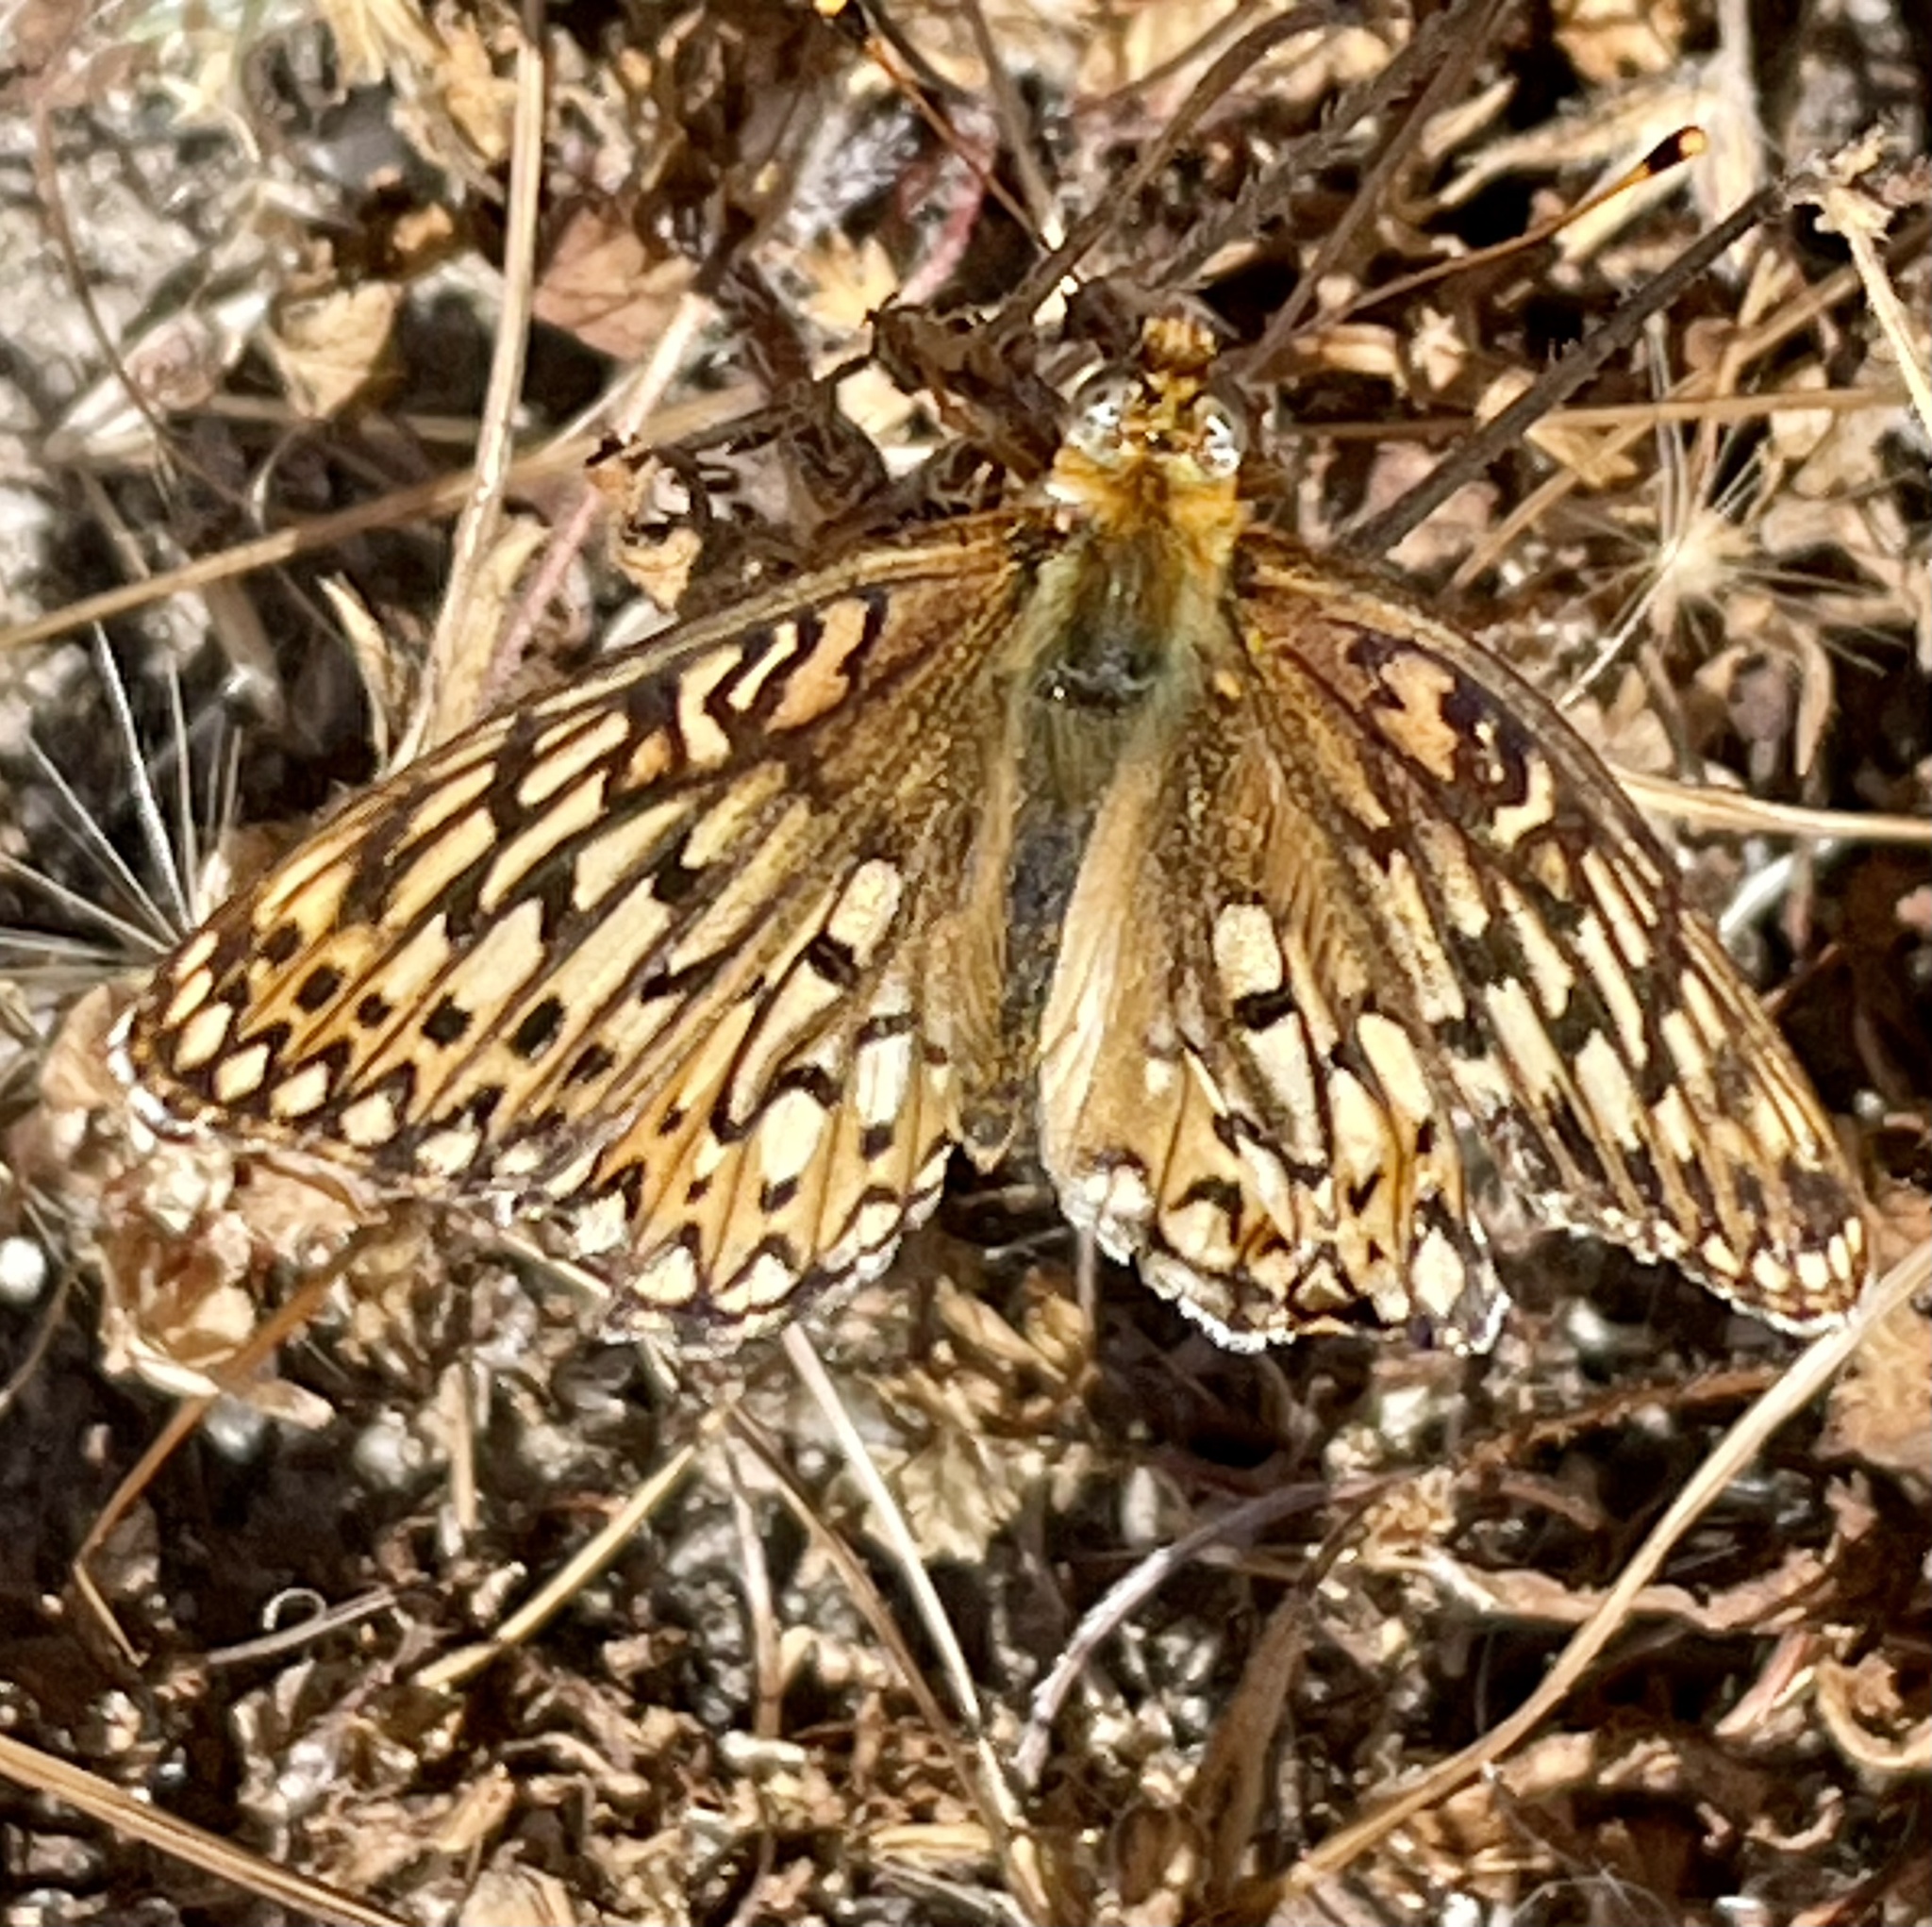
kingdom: Animalia
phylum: Arthropoda
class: Insecta
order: Lepidoptera
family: Nymphalidae
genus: Speyeria
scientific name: Speyeria callippe
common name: Callippe fritillary
